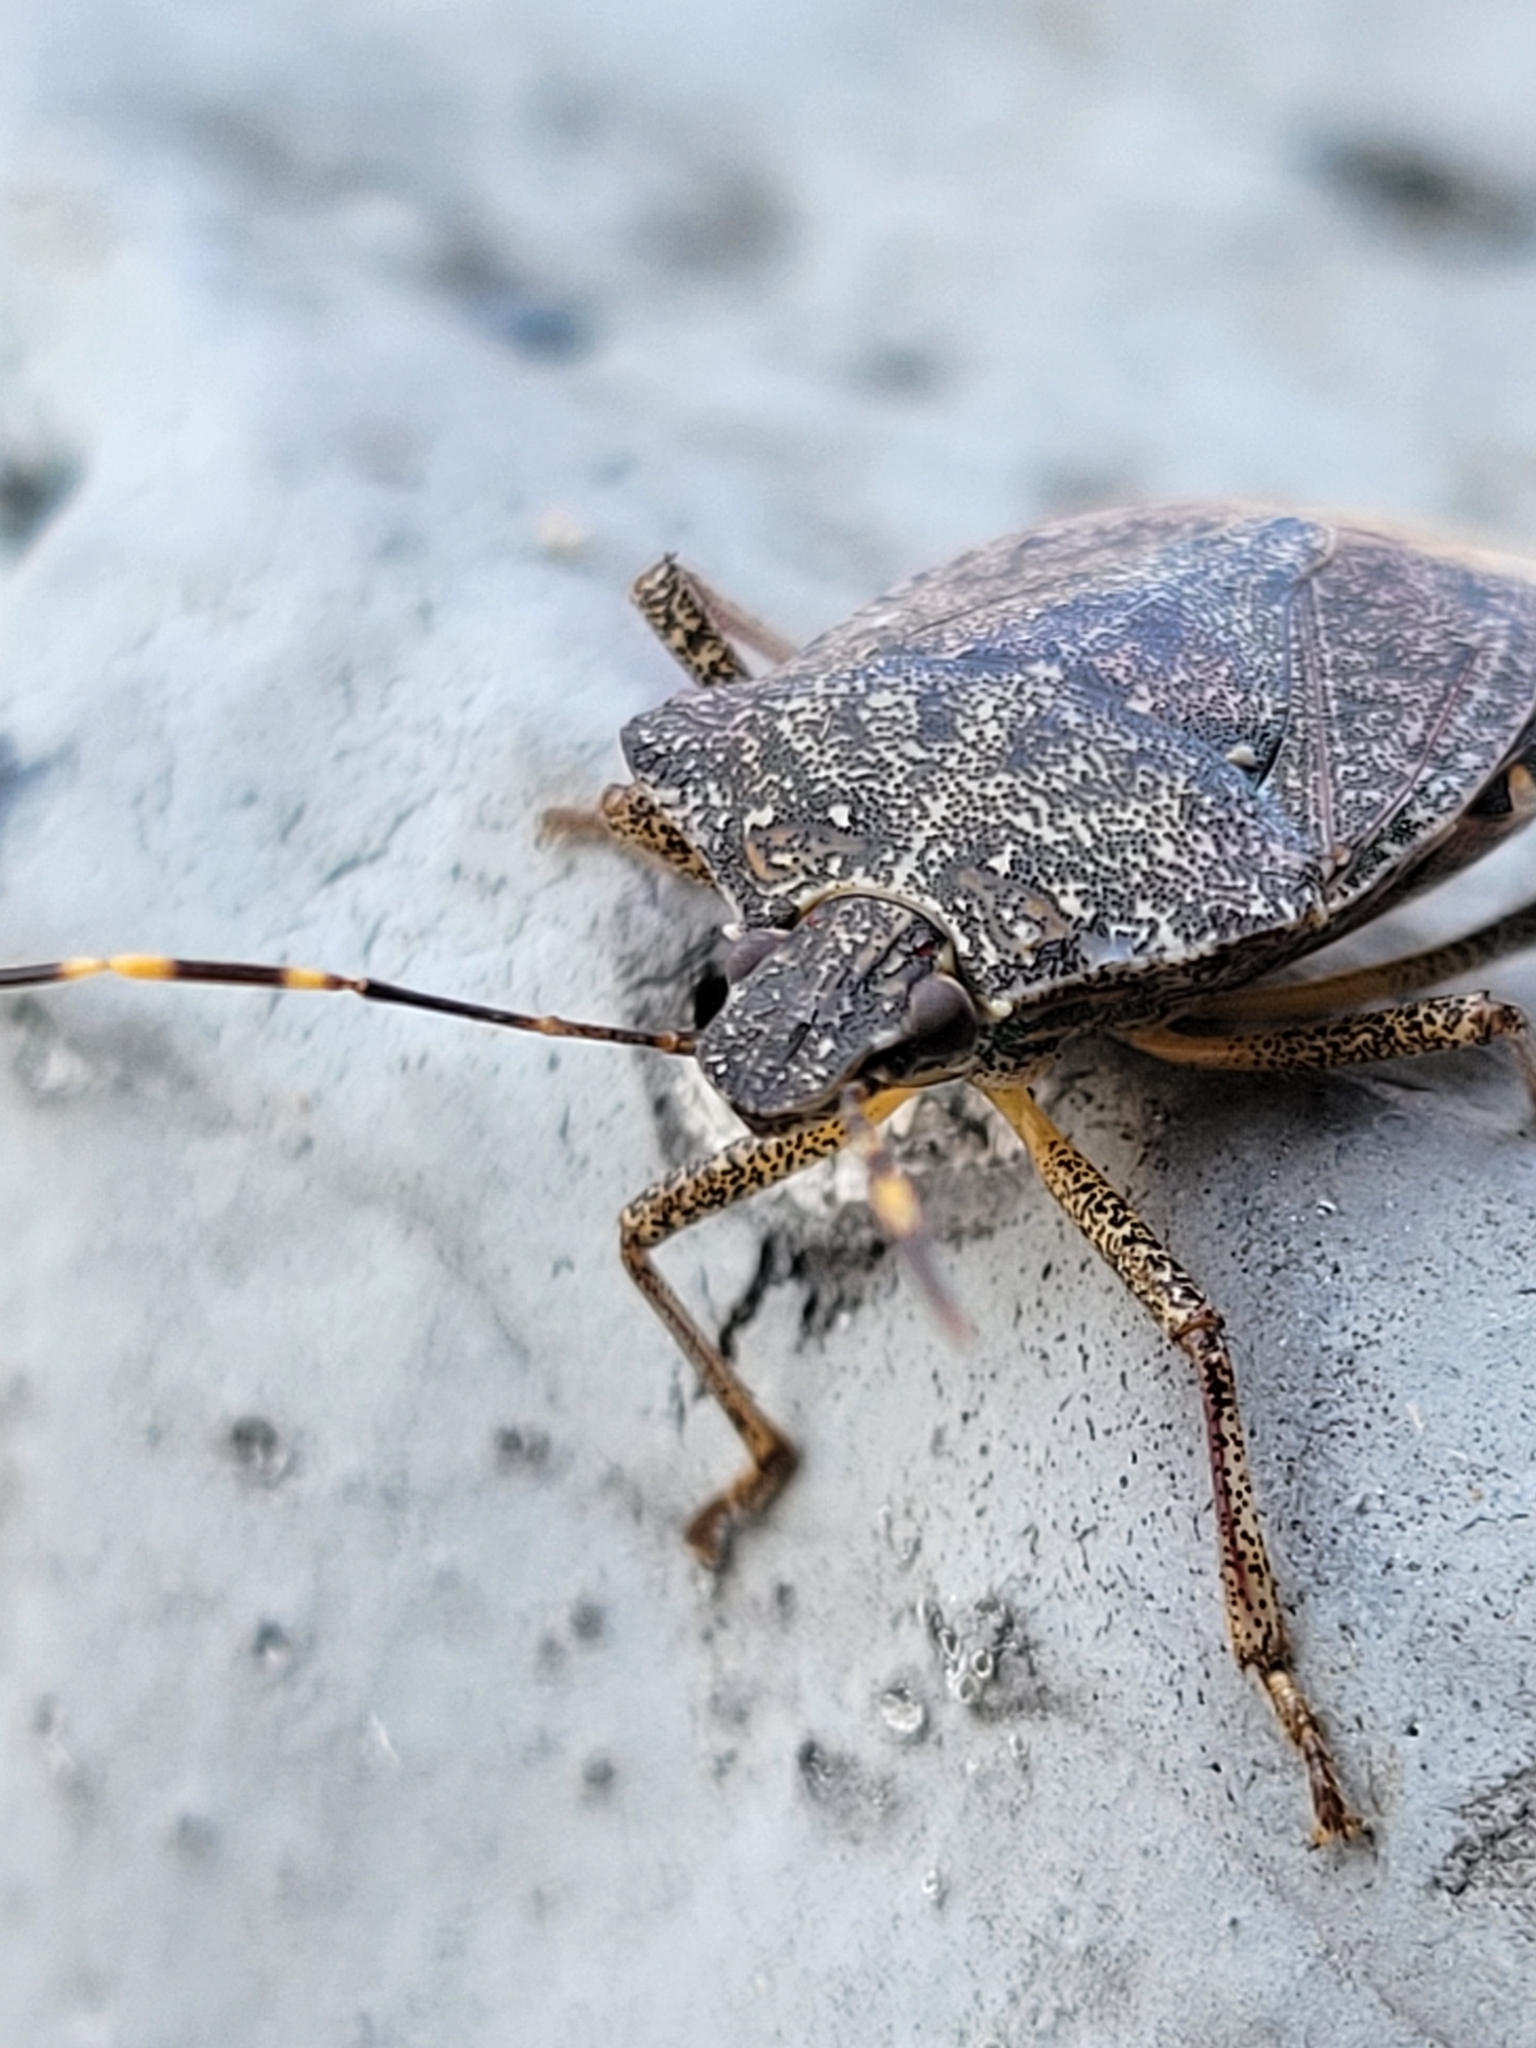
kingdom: Animalia
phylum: Arthropoda
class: Insecta
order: Hemiptera
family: Pentatomidae
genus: Halyomorpha
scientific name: Halyomorpha halys
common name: Brown marmorated stink bug
